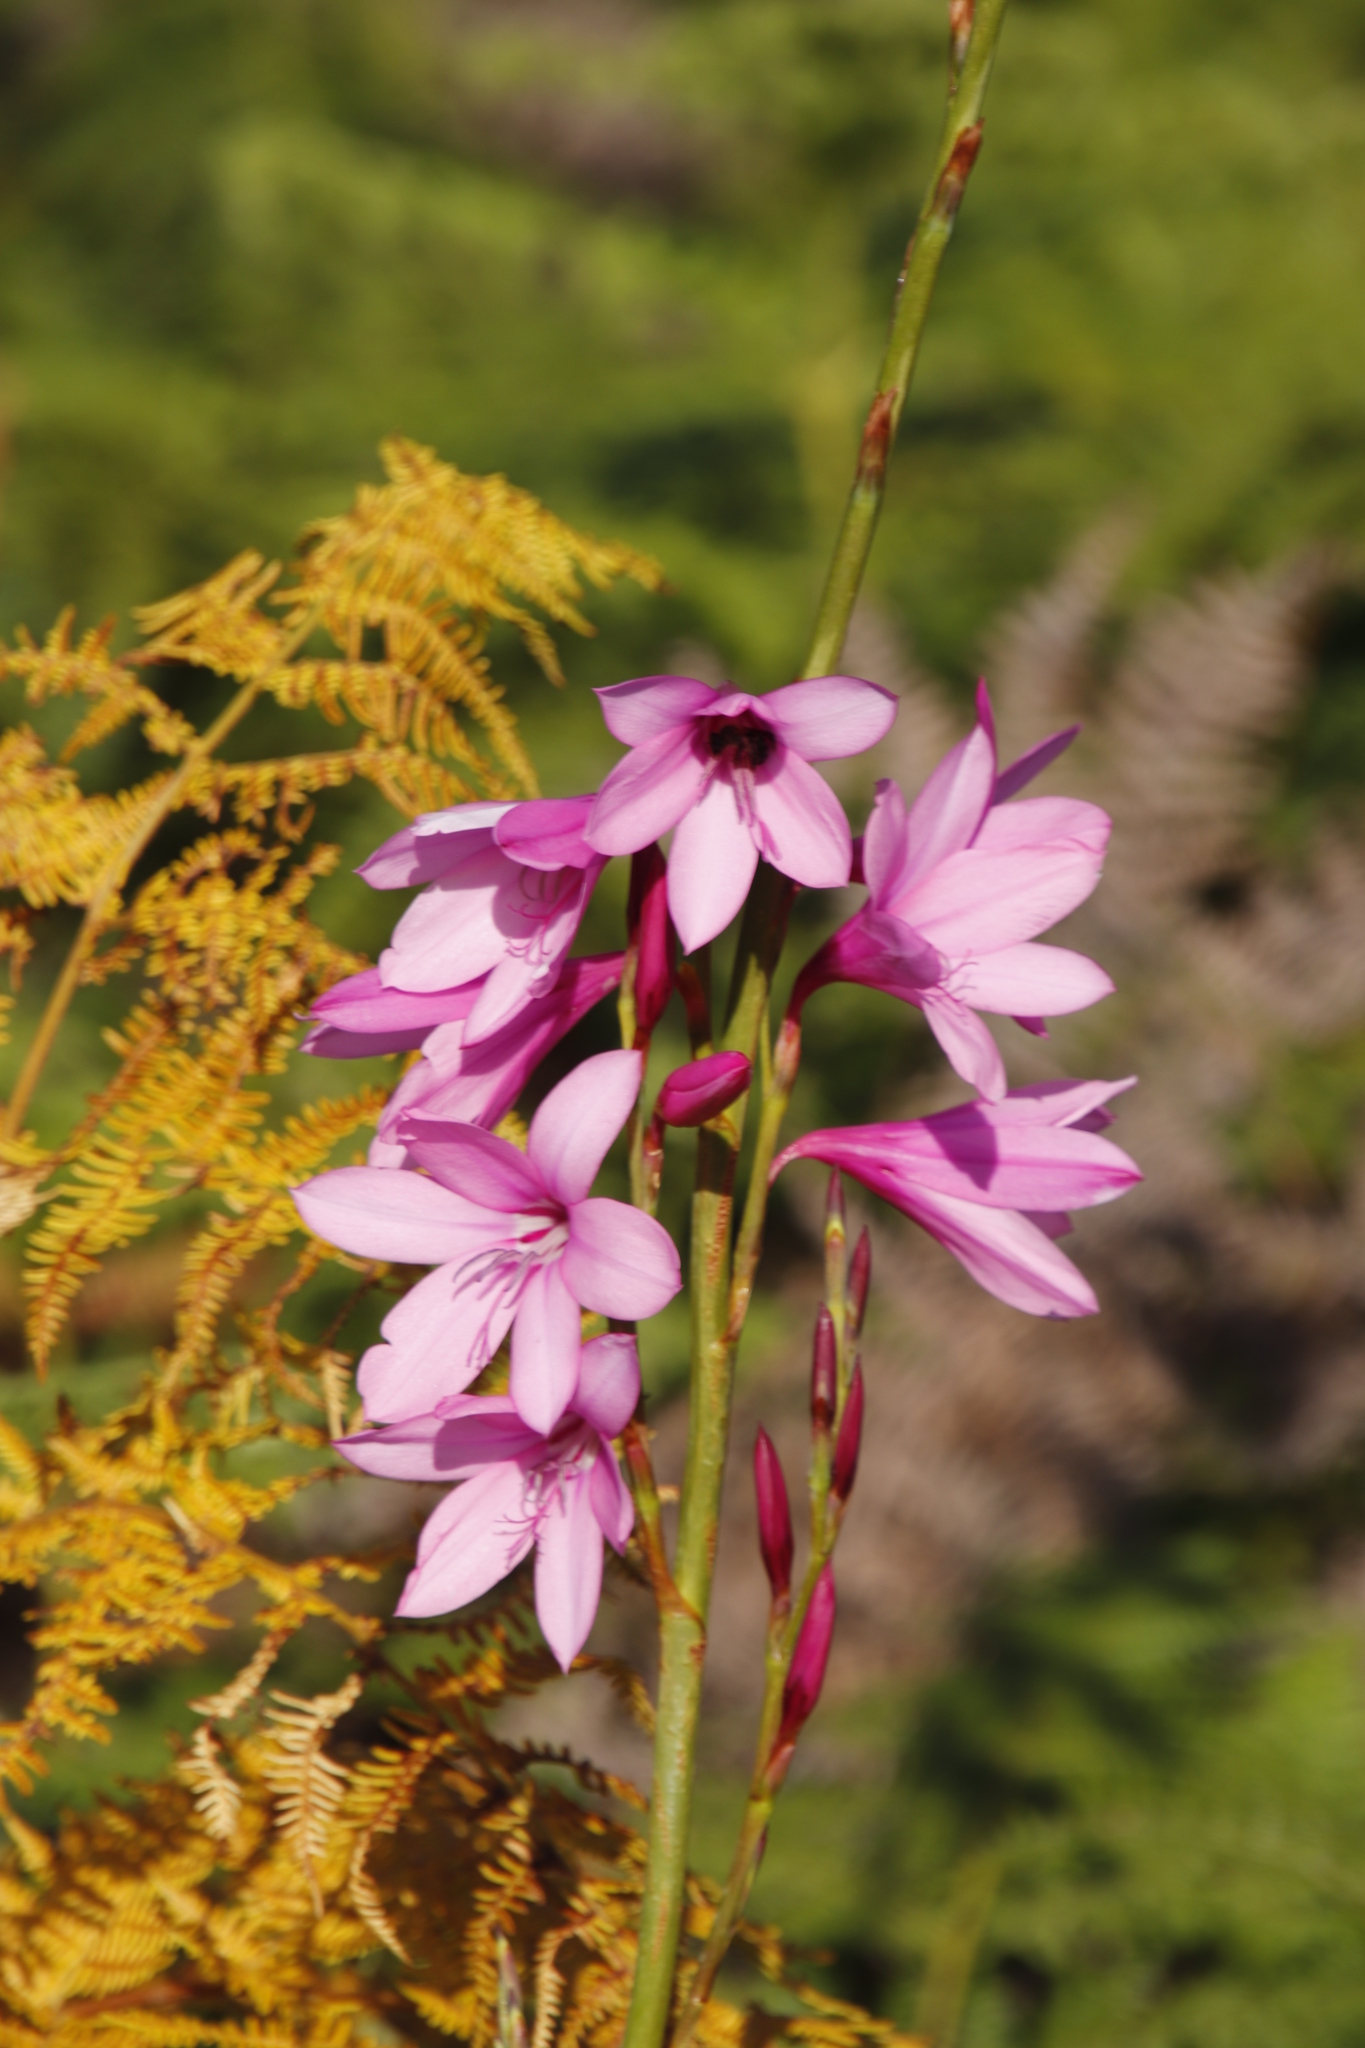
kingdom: Plantae
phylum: Tracheophyta
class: Liliopsida
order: Asparagales
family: Iridaceae
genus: Watsonia
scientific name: Watsonia borbonica
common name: Bugle-lily
